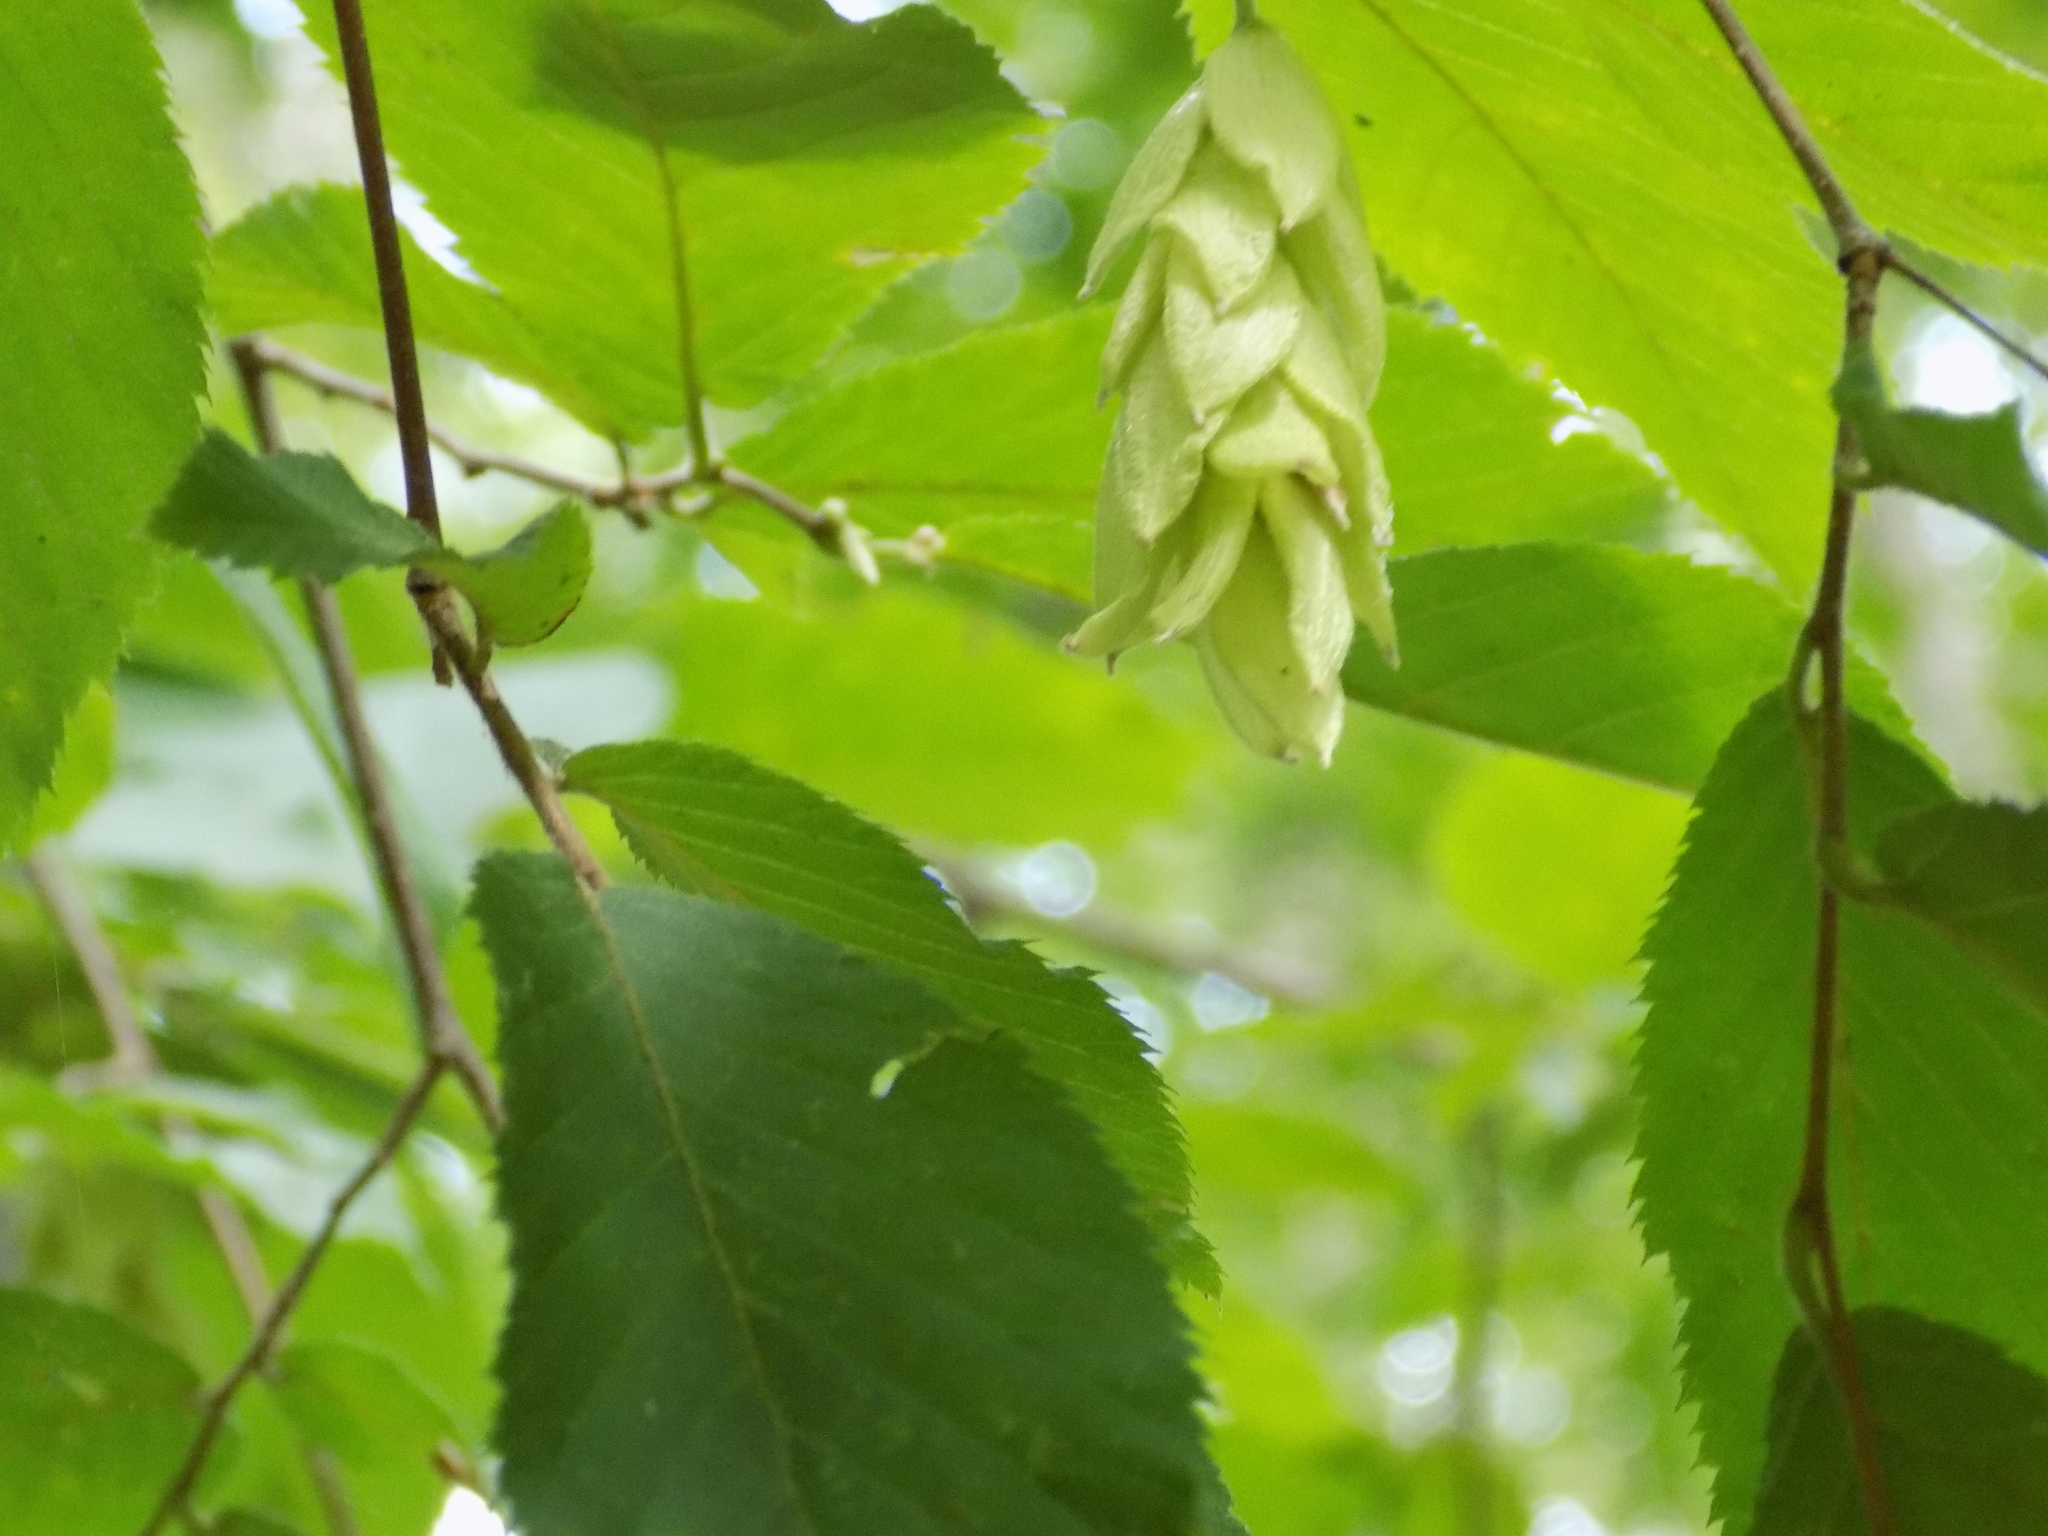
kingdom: Plantae
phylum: Tracheophyta
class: Magnoliopsida
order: Fagales
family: Betulaceae
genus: Ostrya
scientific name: Ostrya virginiana
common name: Ironwood
